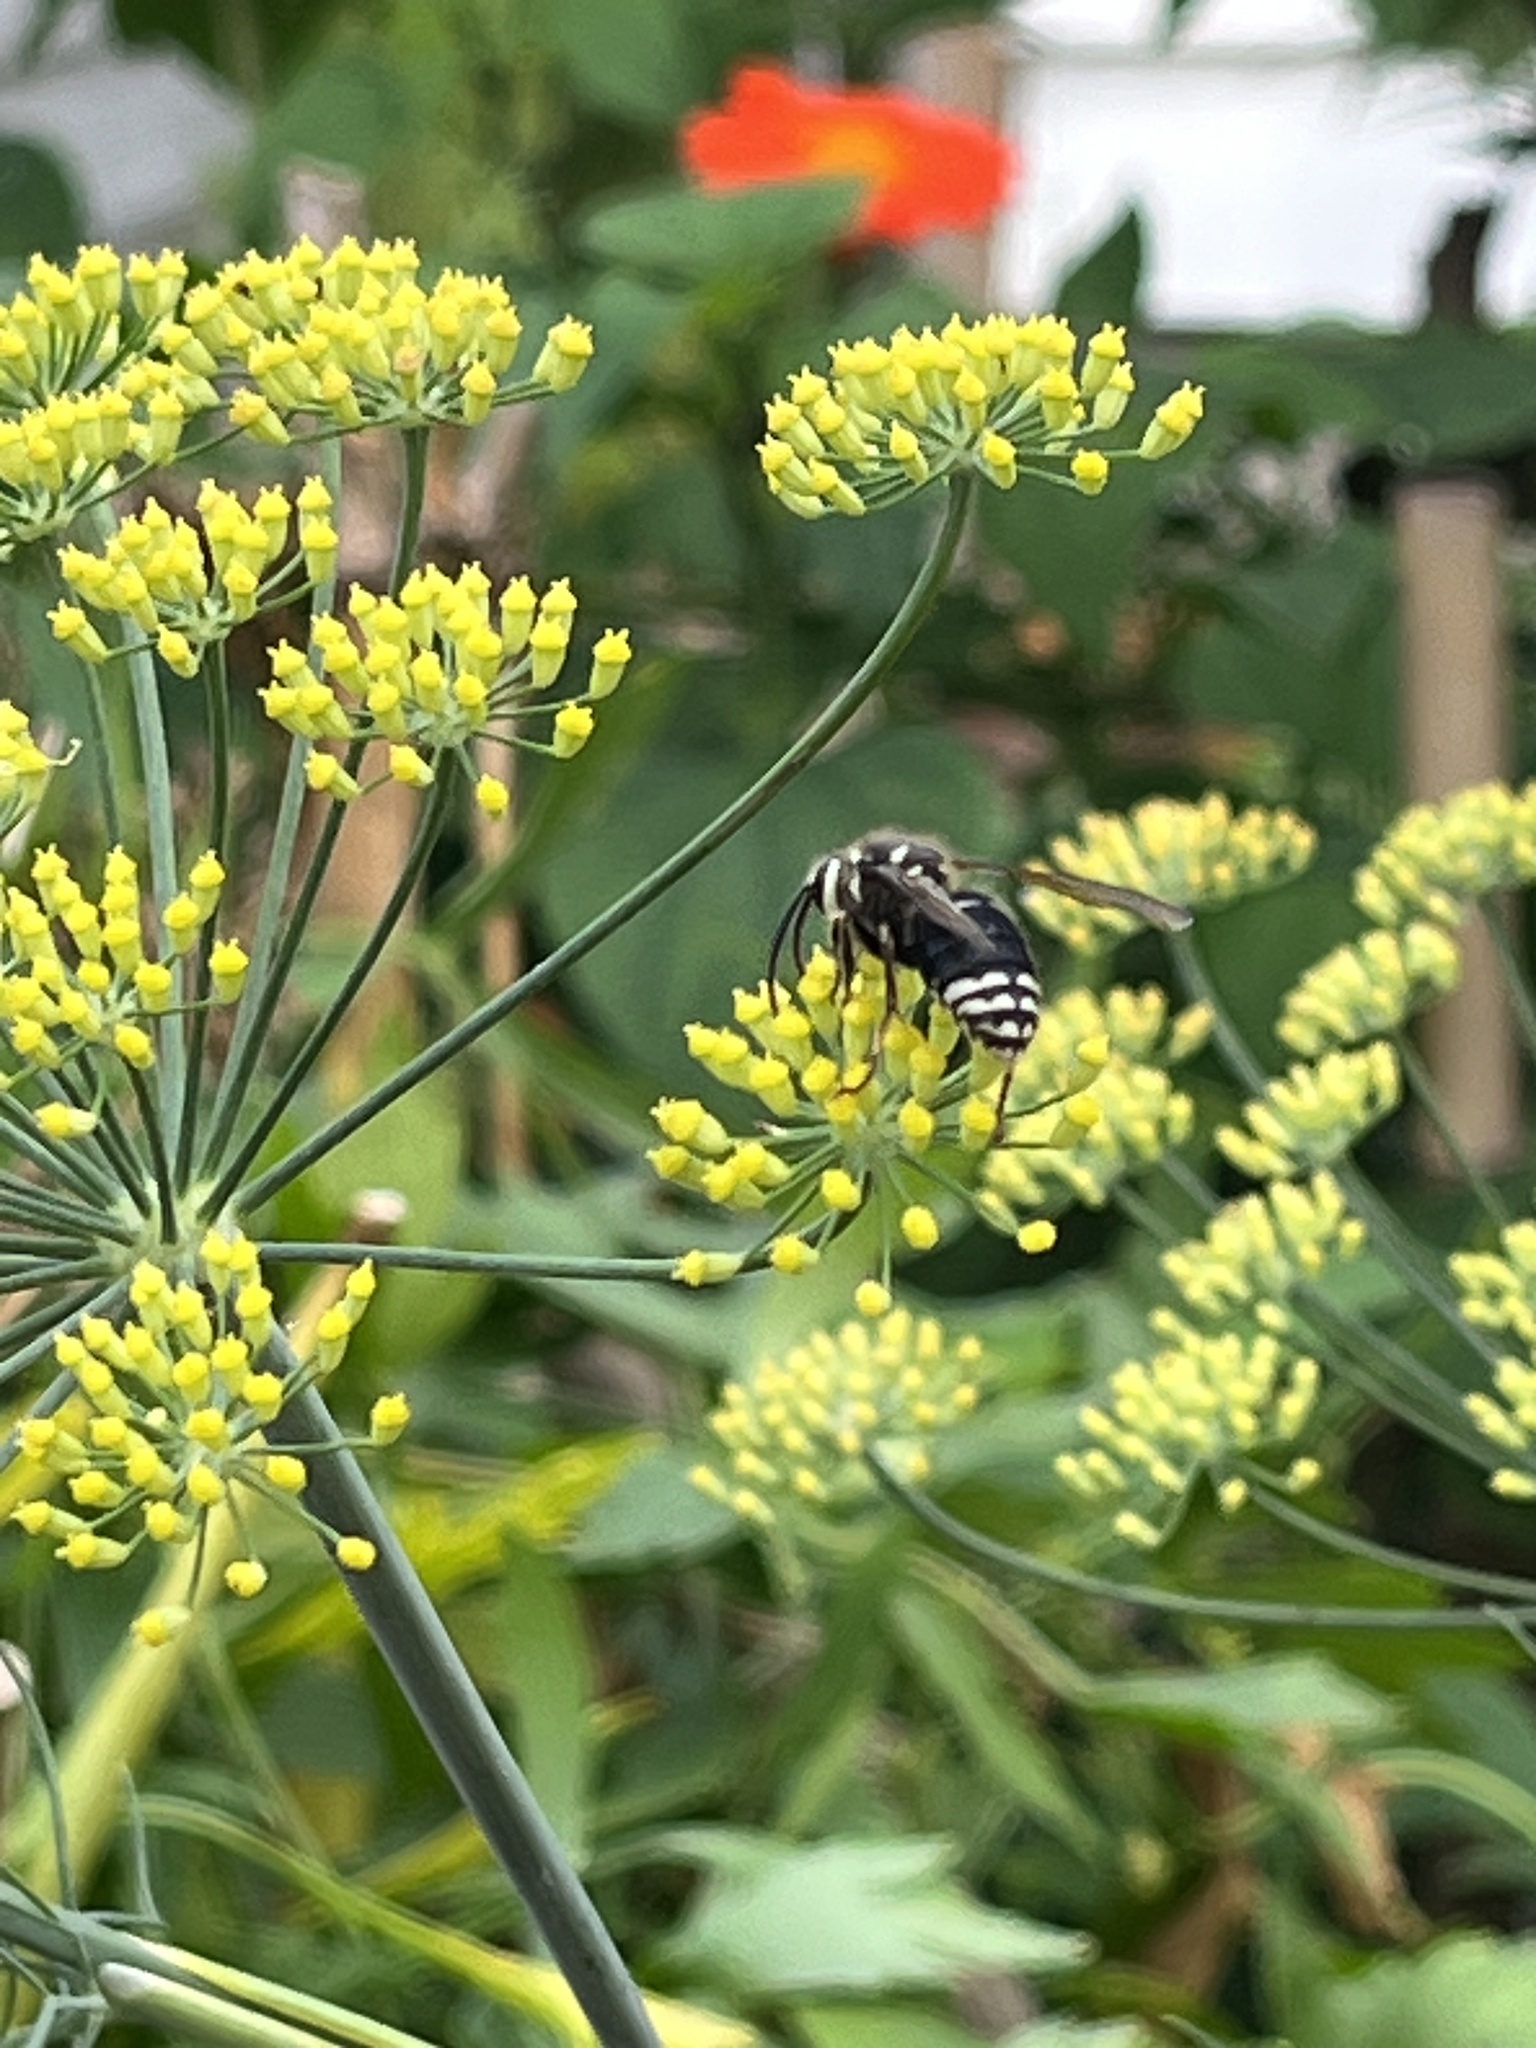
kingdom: Animalia
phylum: Arthropoda
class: Insecta
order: Hymenoptera
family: Vespidae
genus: Dolichovespula
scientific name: Dolichovespula maculata
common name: Bald-faced hornet
